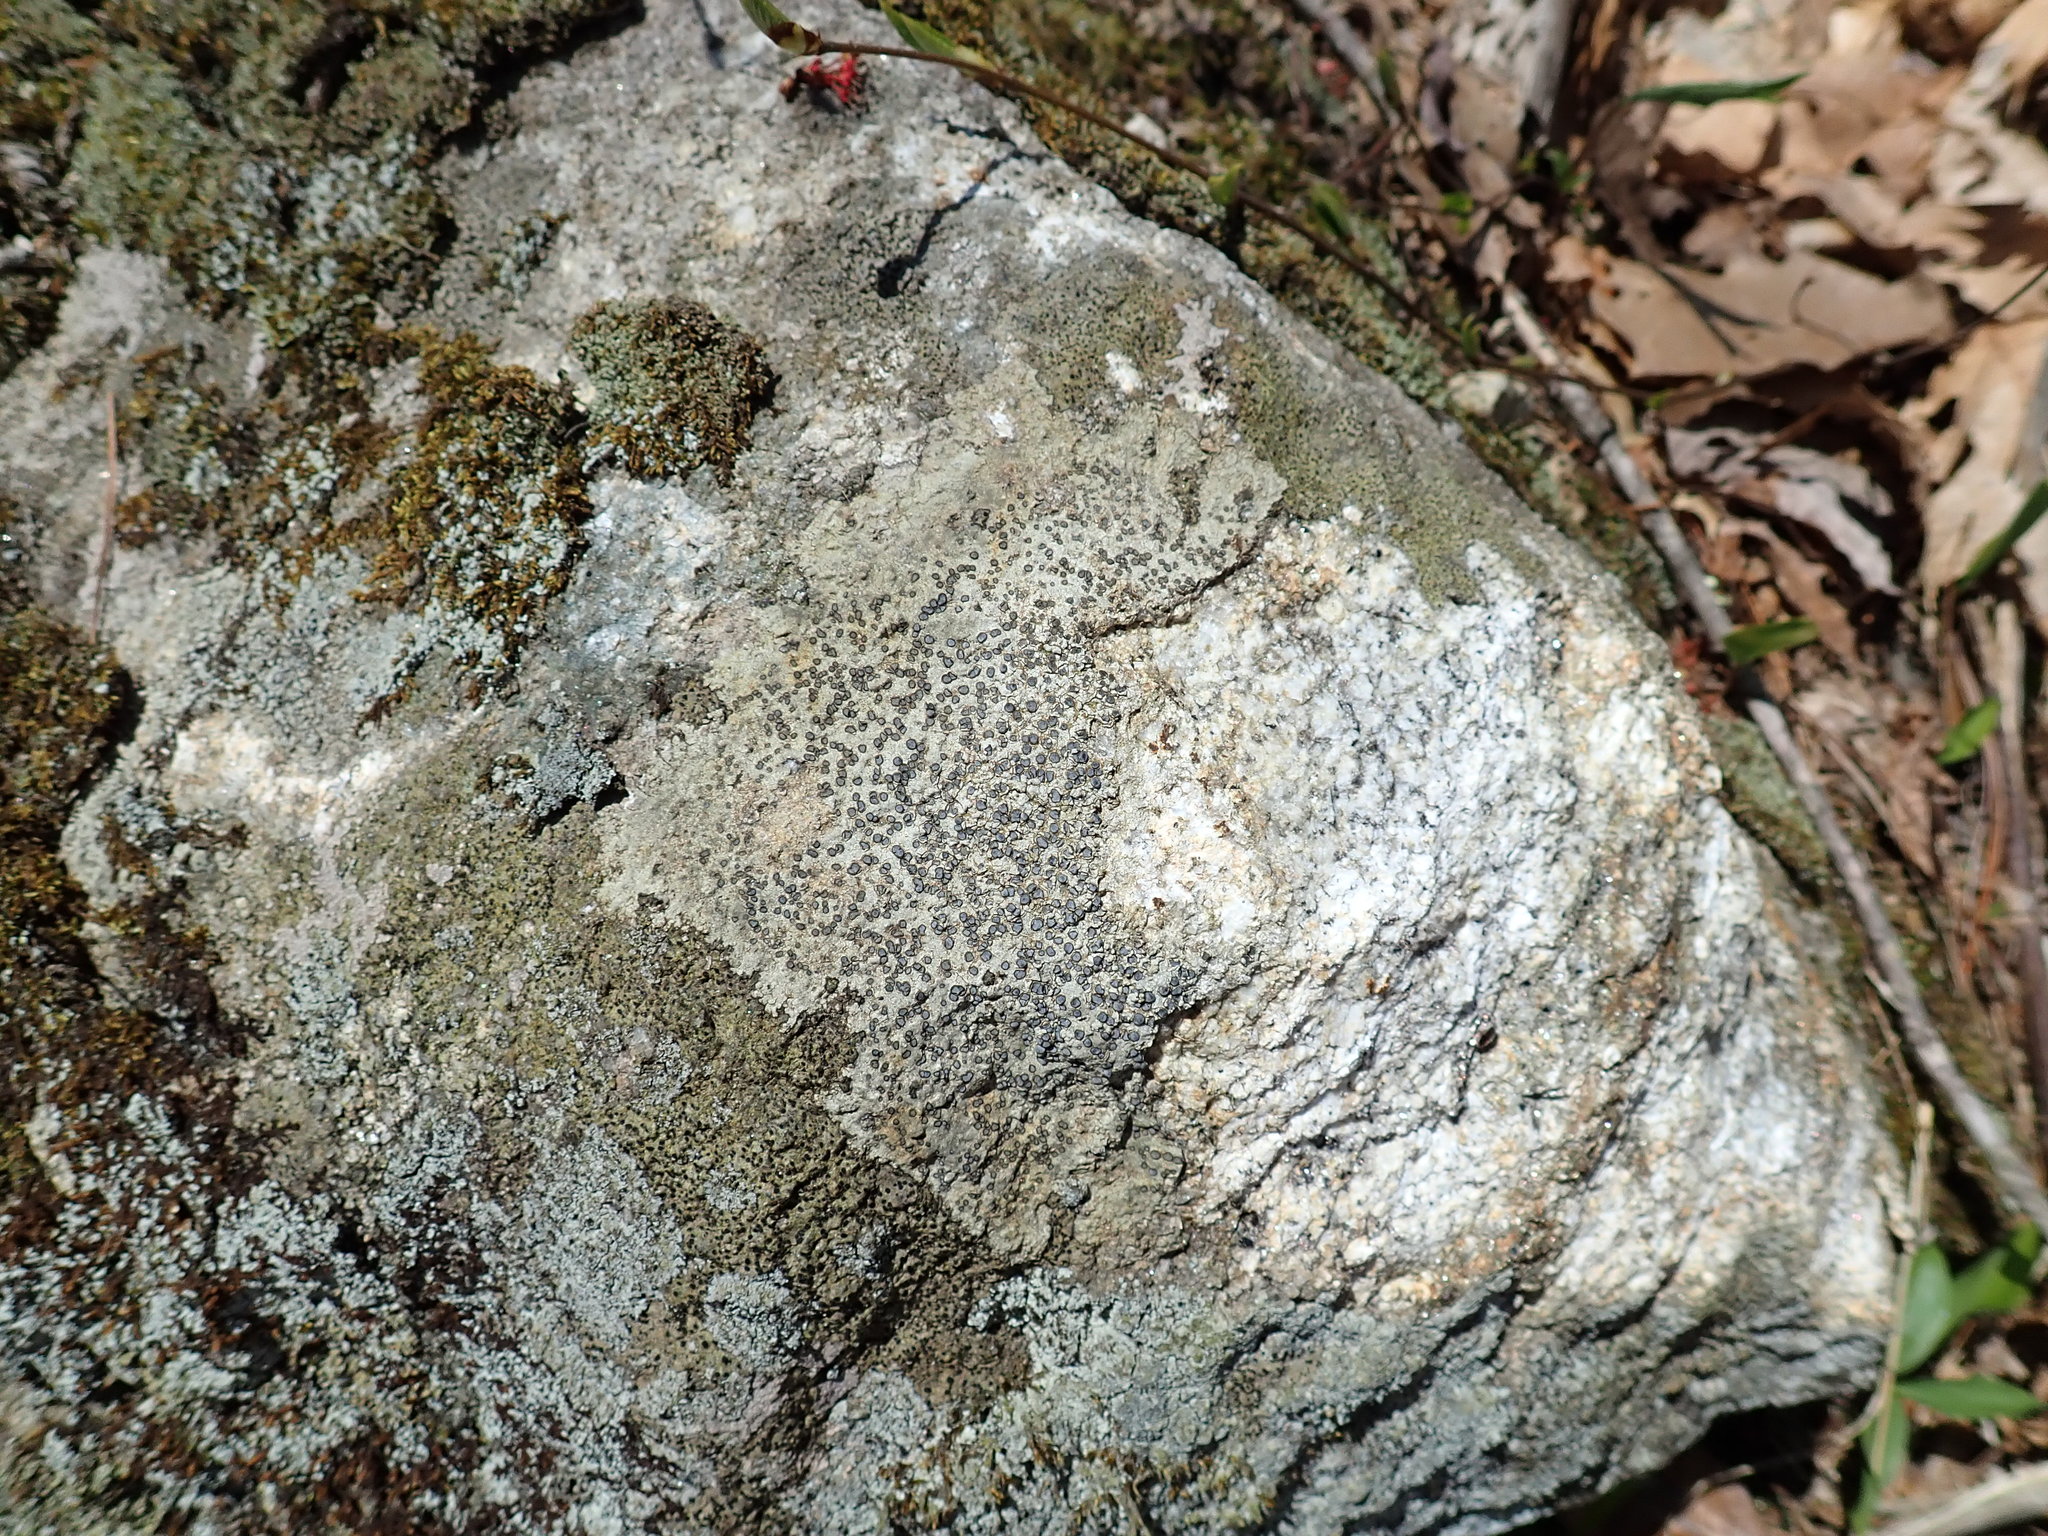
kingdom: Fungi
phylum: Ascomycota
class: Lecanoromycetes
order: Lecideales
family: Lecideaceae
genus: Porpidia
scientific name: Porpidia albocaerulescens
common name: Smokey-eyed boulder lichen
